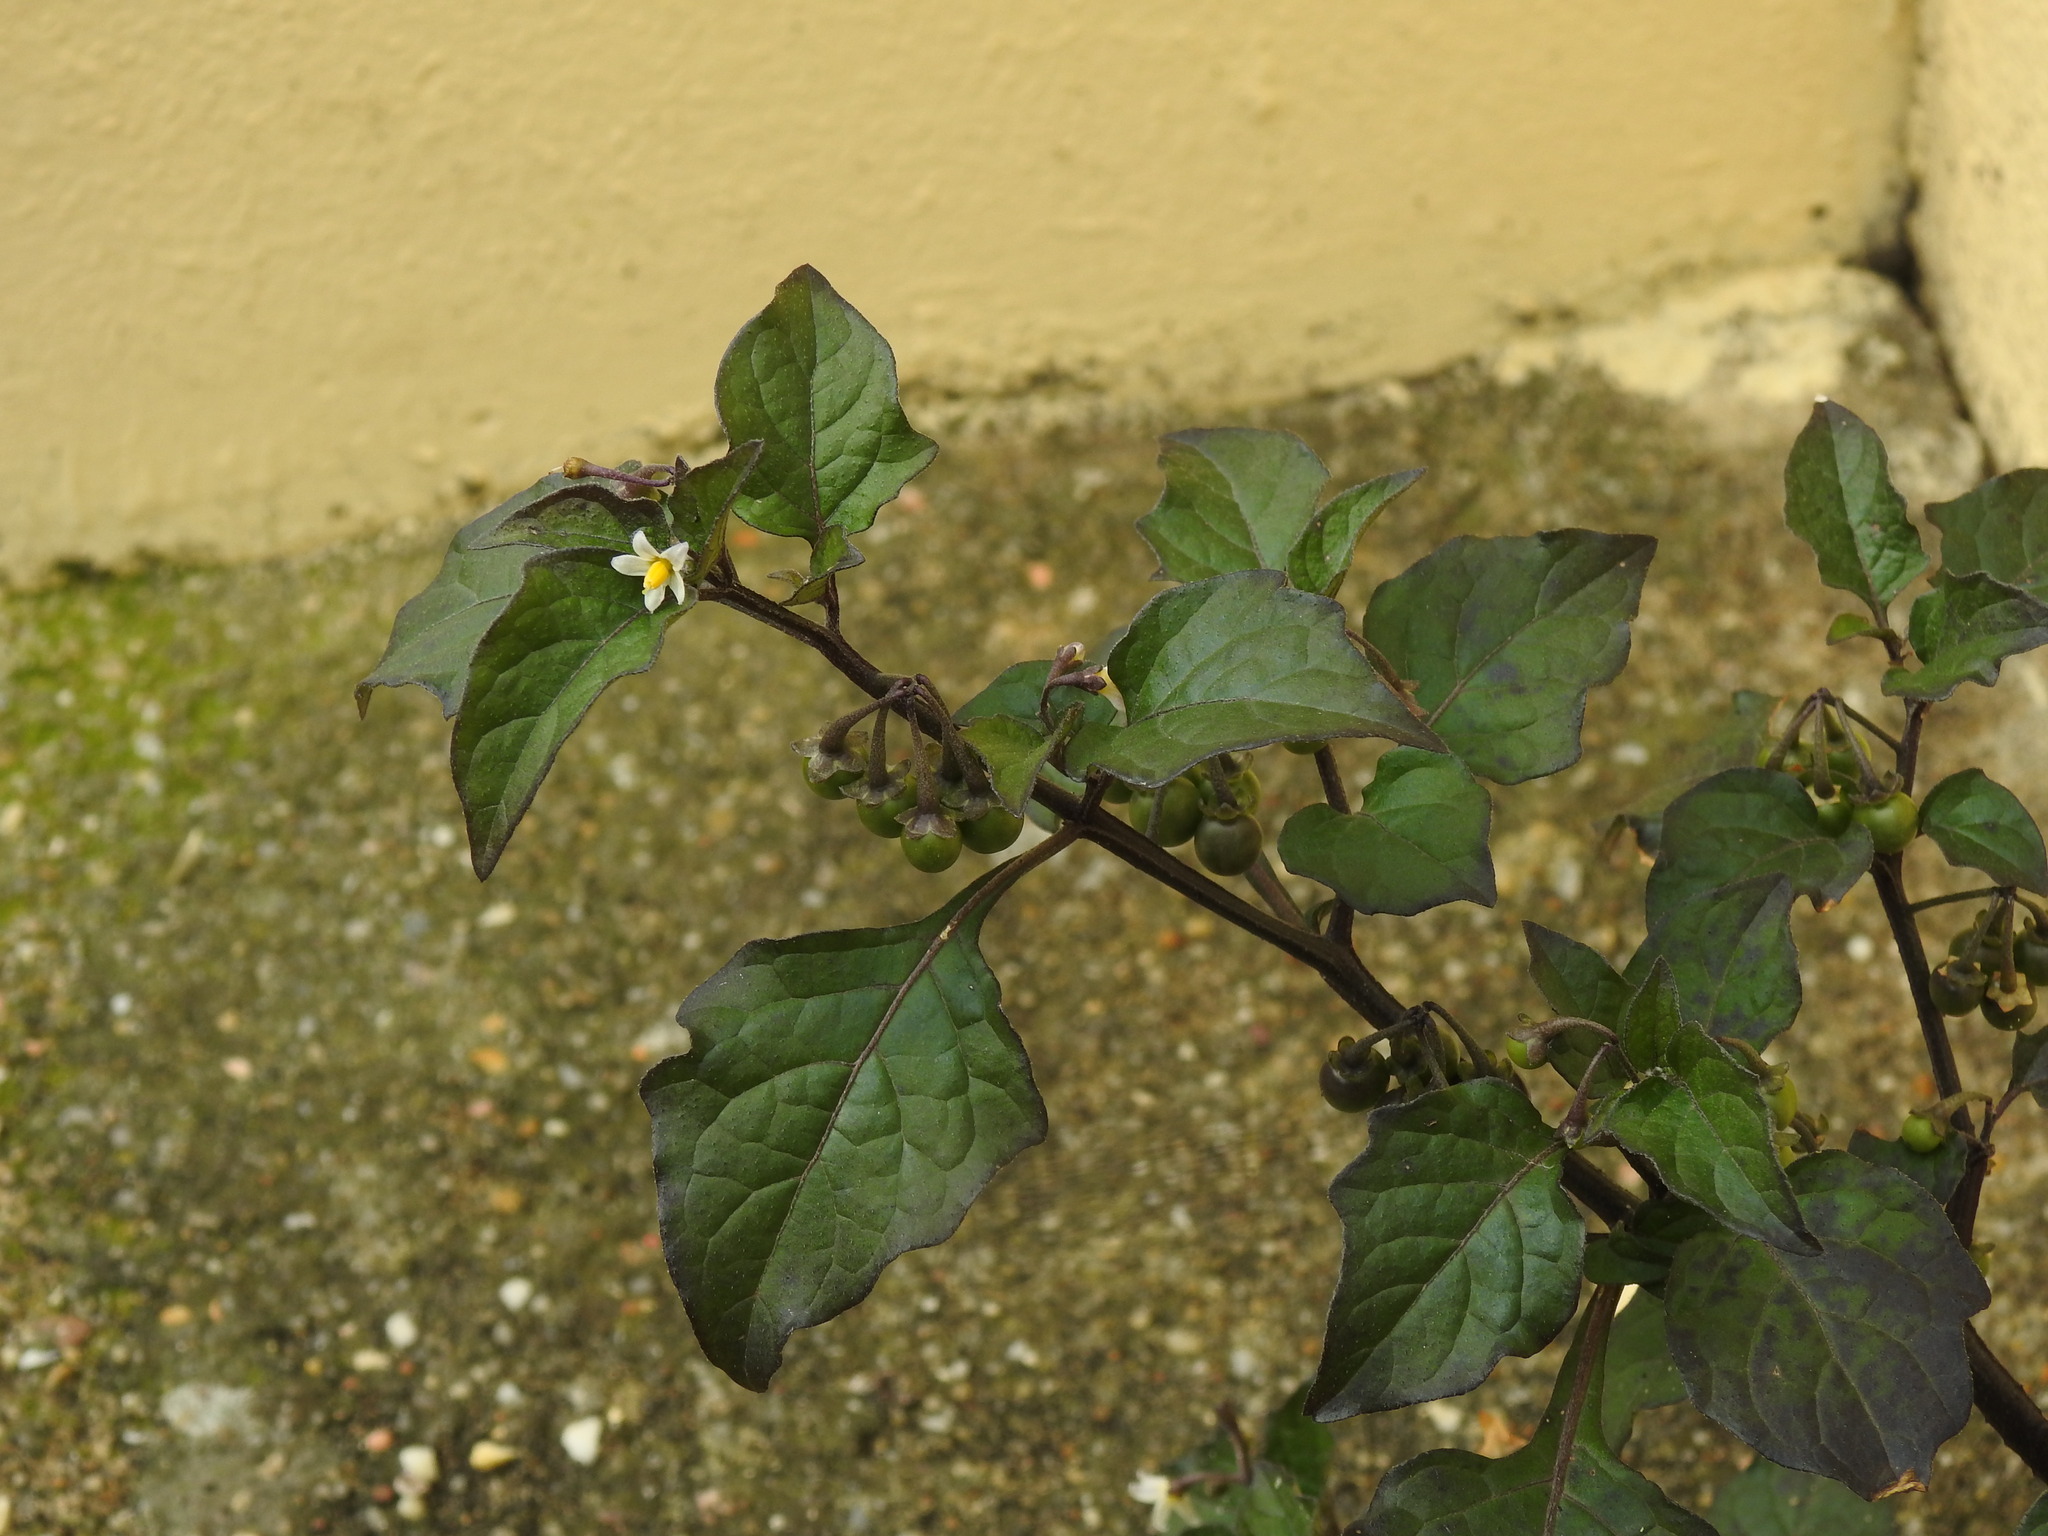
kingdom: Plantae
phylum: Tracheophyta
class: Magnoliopsida
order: Solanales
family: Solanaceae
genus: Solanum
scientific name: Solanum nigrum
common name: Black nightshade
